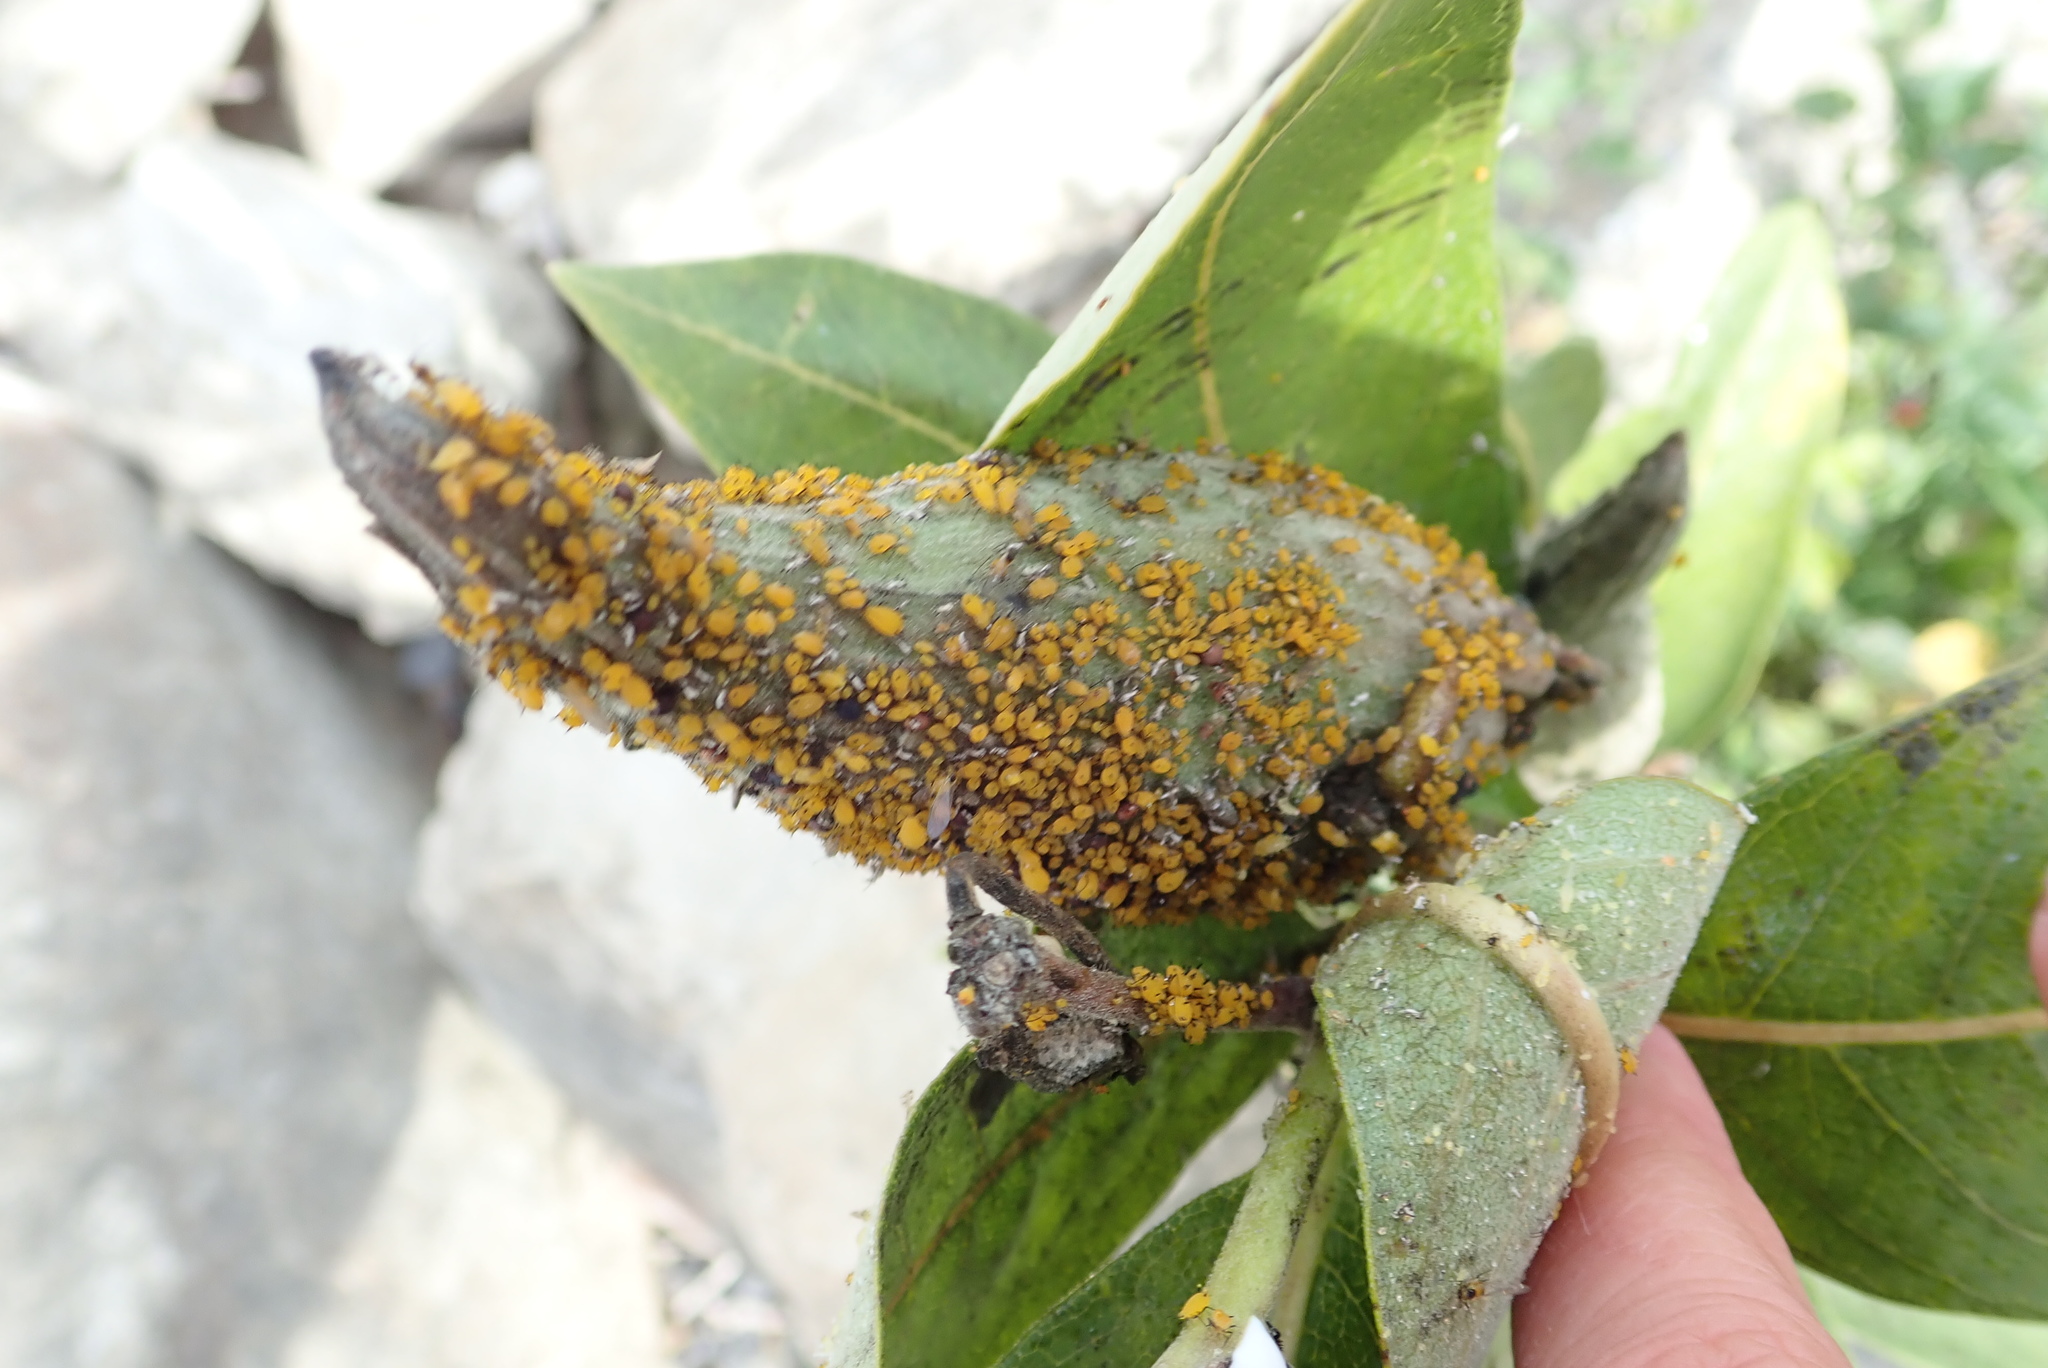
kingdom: Animalia
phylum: Arthropoda
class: Insecta
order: Hemiptera
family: Aphididae
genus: Aphis
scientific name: Aphis nerii
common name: Oleander aphid
